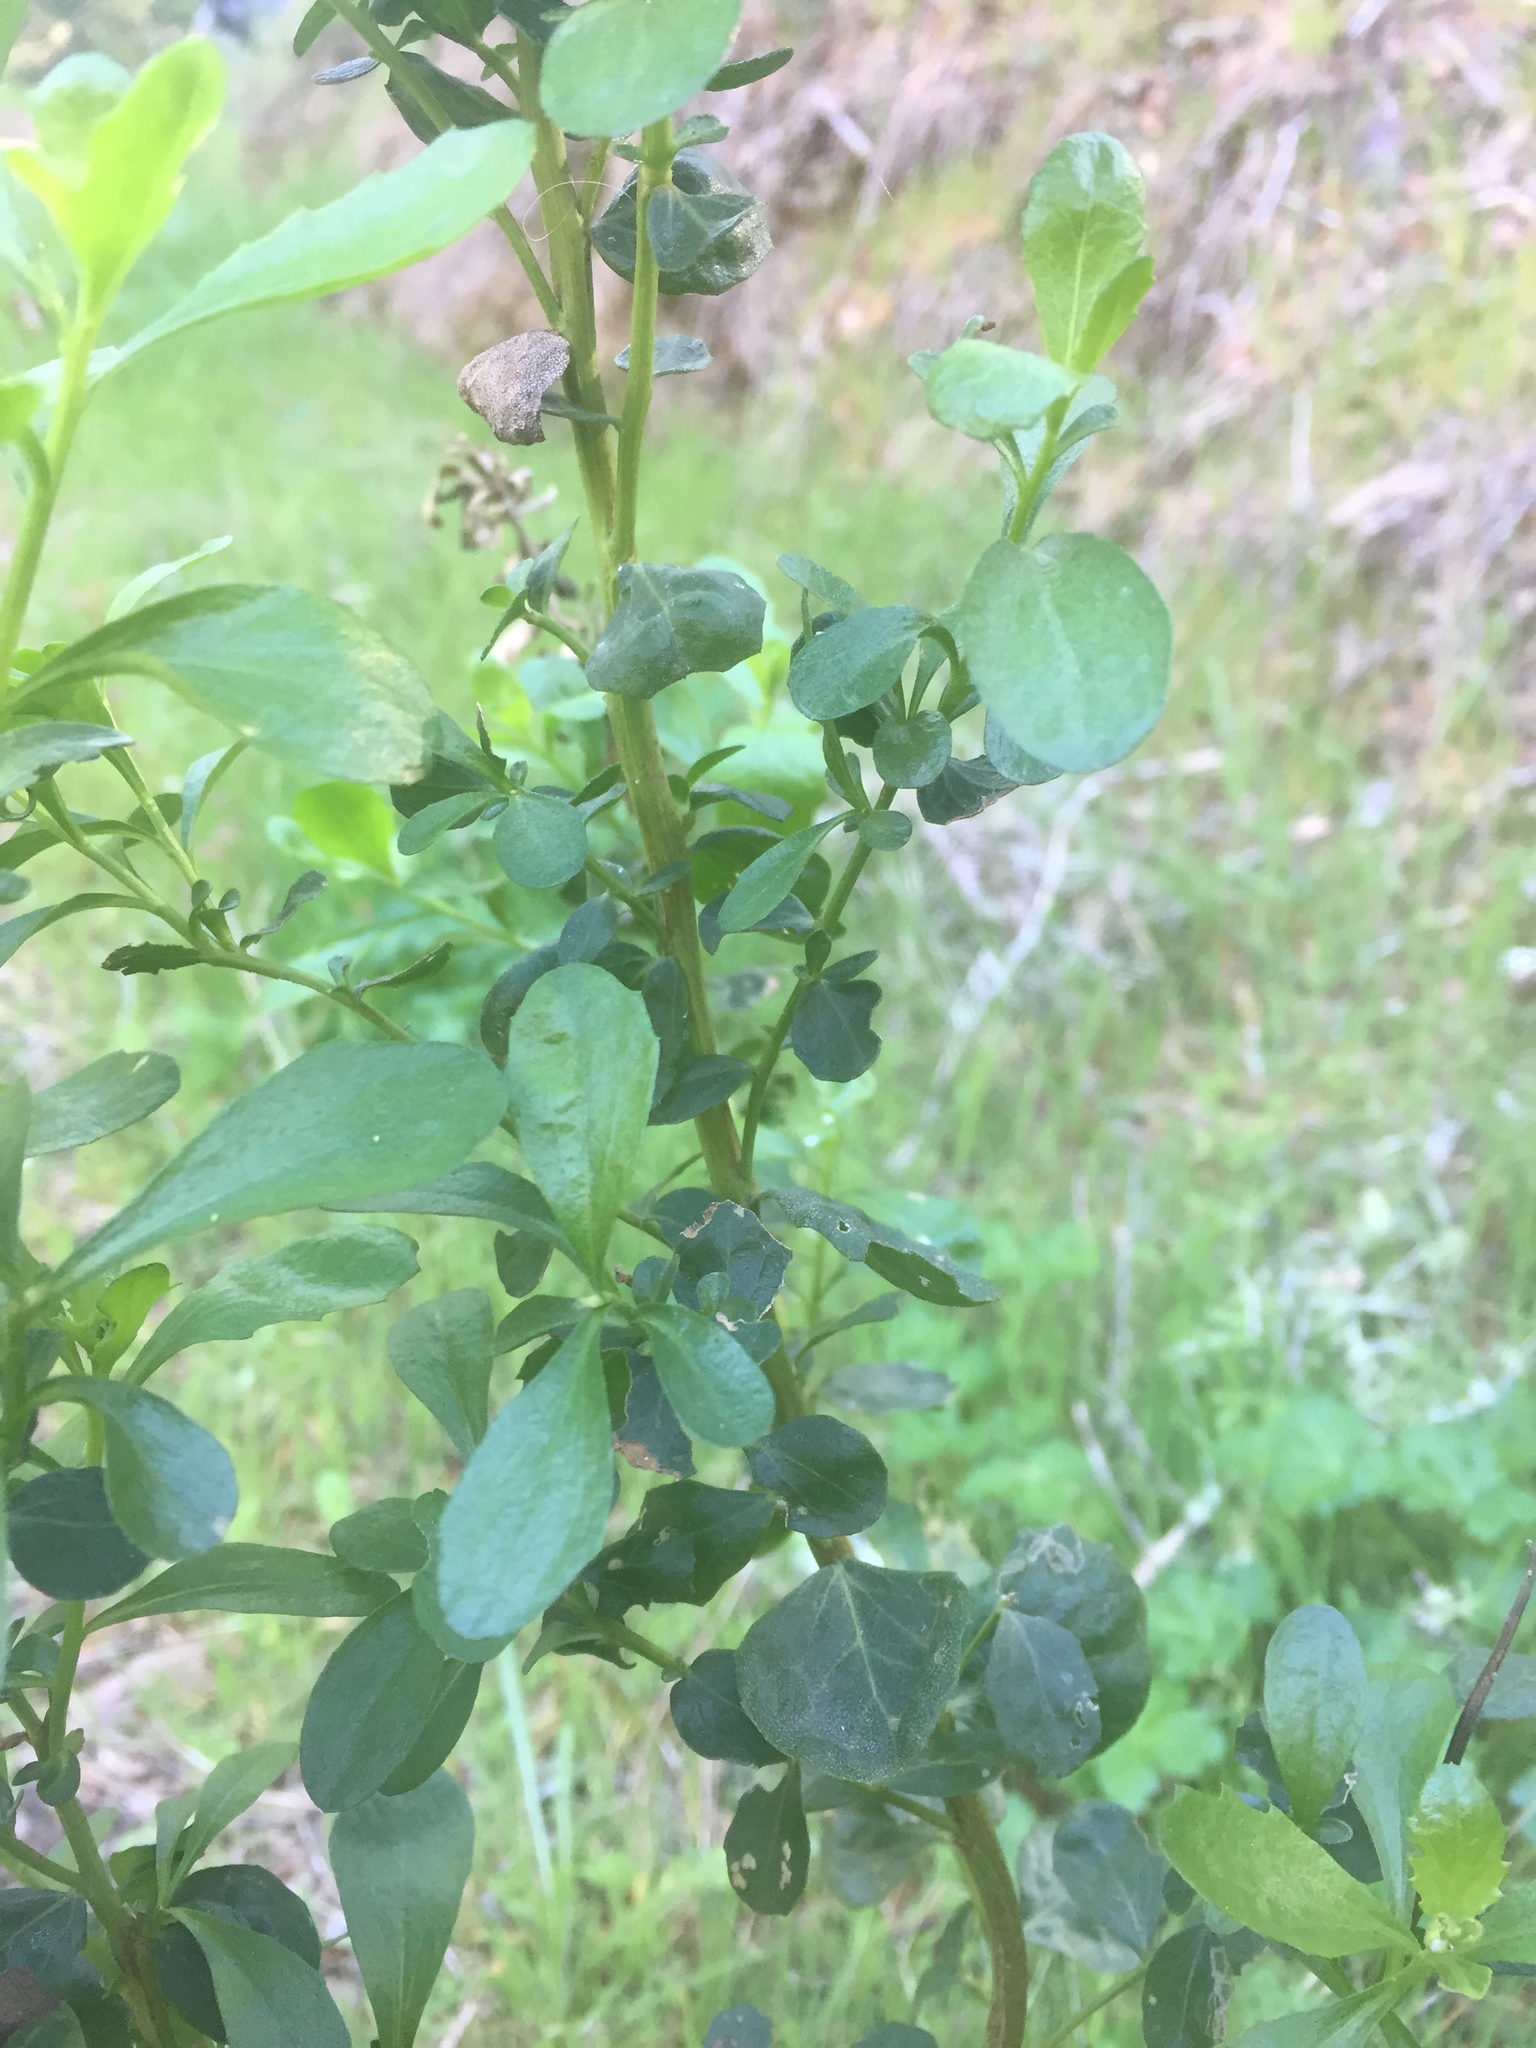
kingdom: Plantae
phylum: Tracheophyta
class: Magnoliopsida
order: Asterales
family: Asteraceae
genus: Baccharis
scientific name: Baccharis pilularis
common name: Coyotebrush
